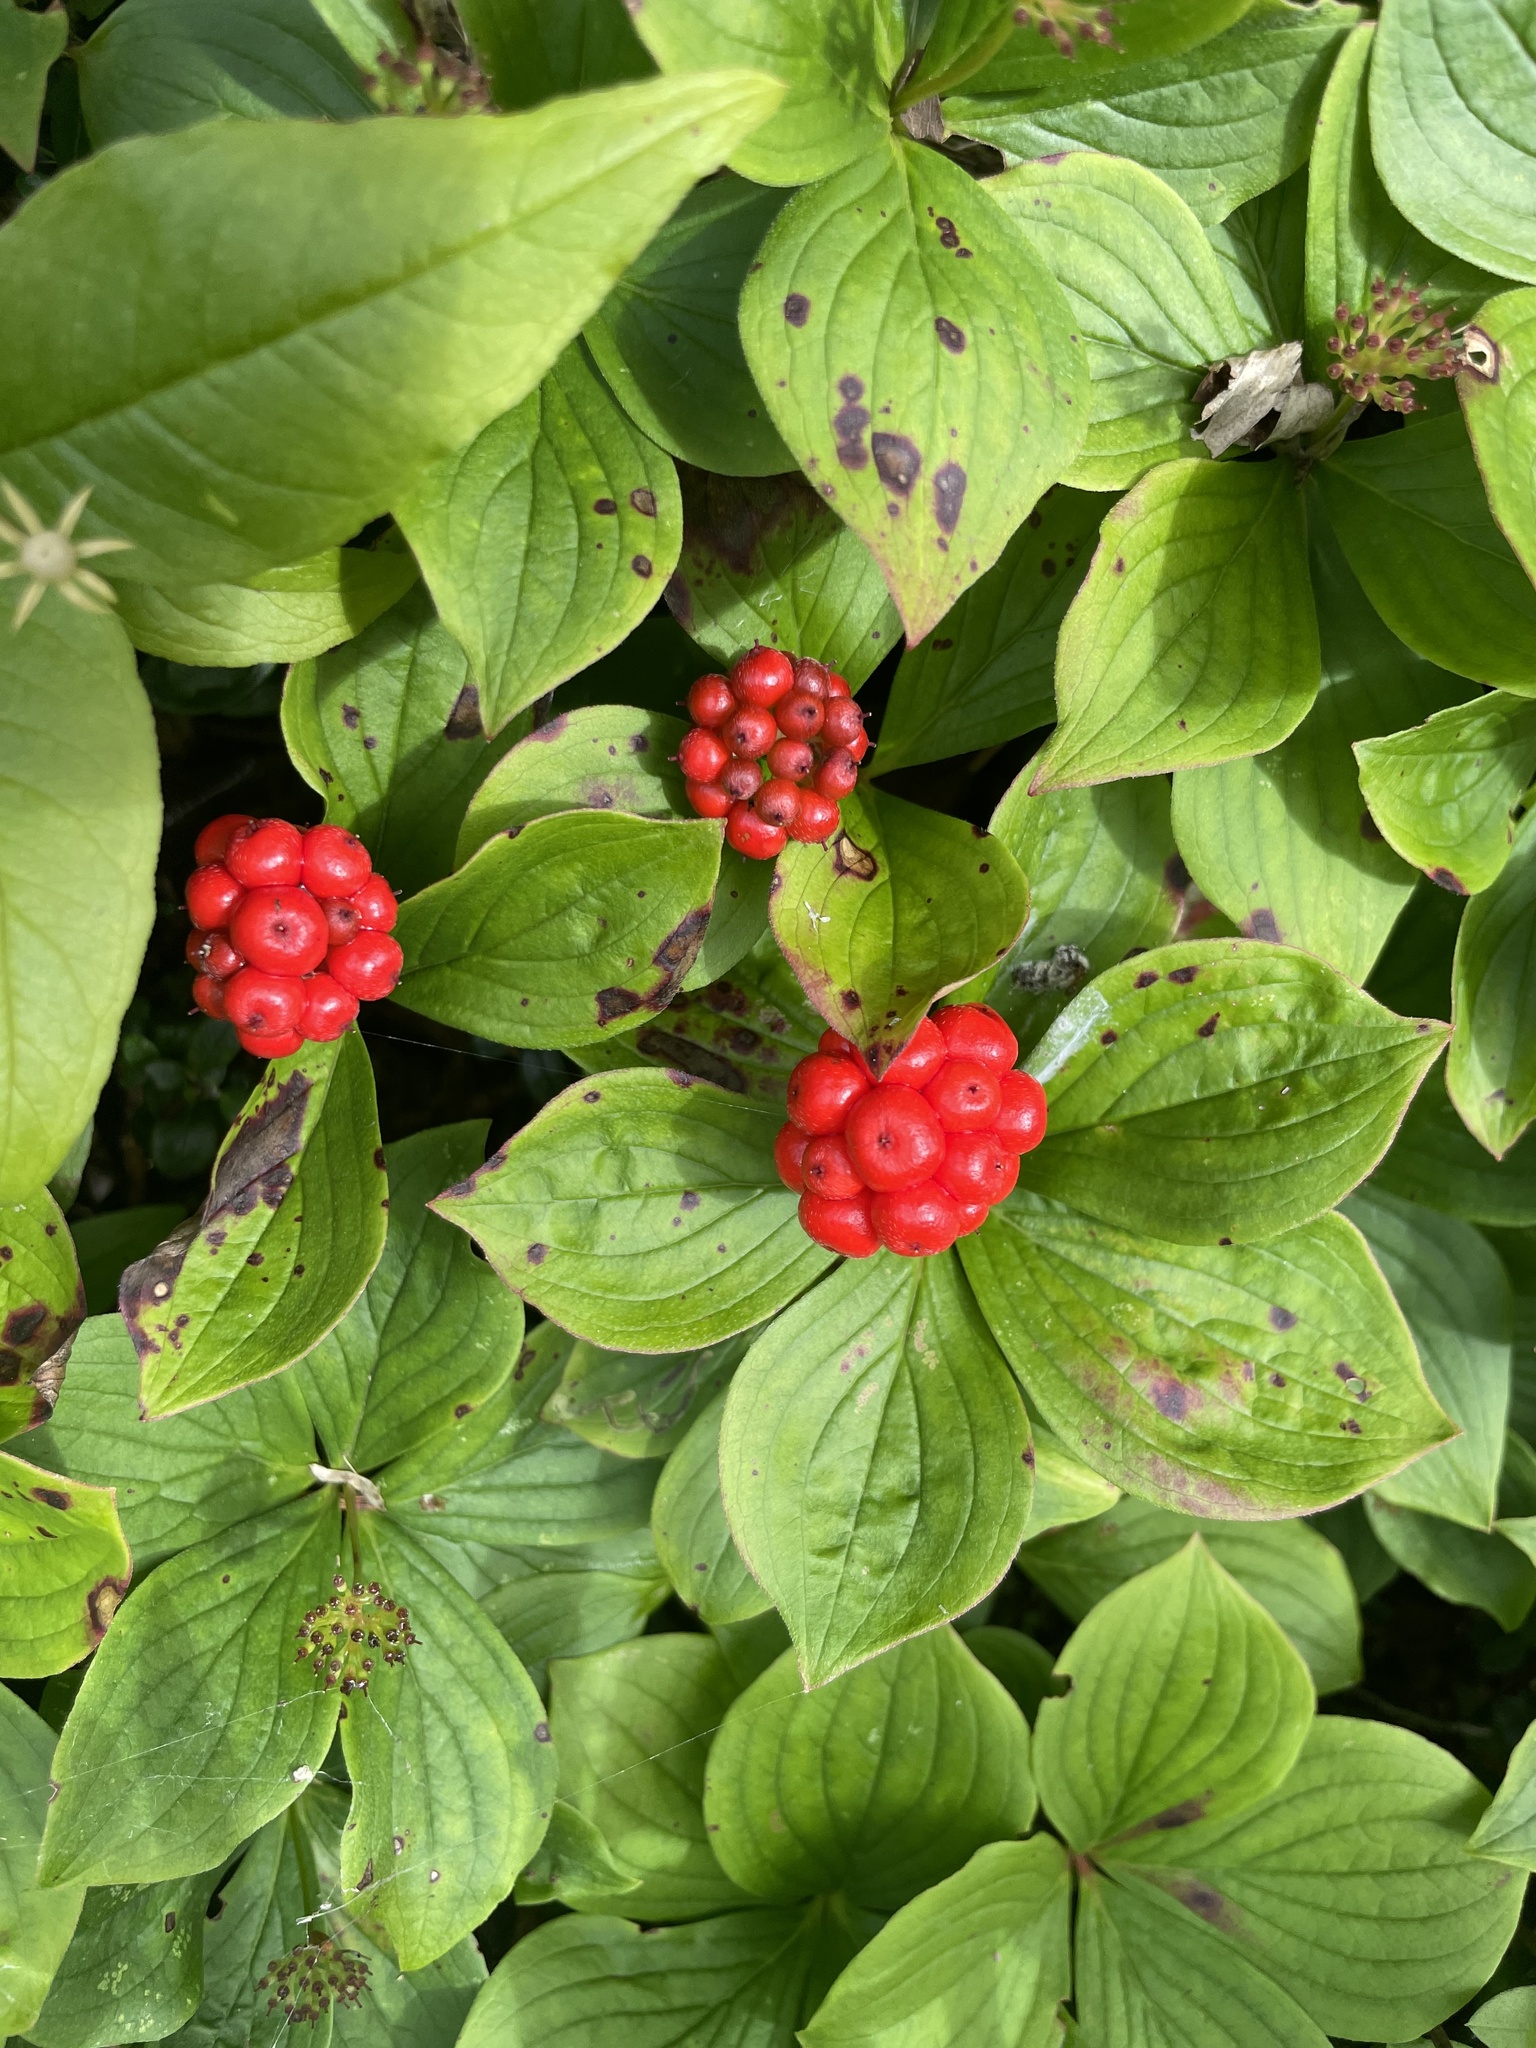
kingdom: Plantae
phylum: Tracheophyta
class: Magnoliopsida
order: Cornales
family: Cornaceae
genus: Cornus
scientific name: Cornus canadensis
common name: Creeping dogwood
